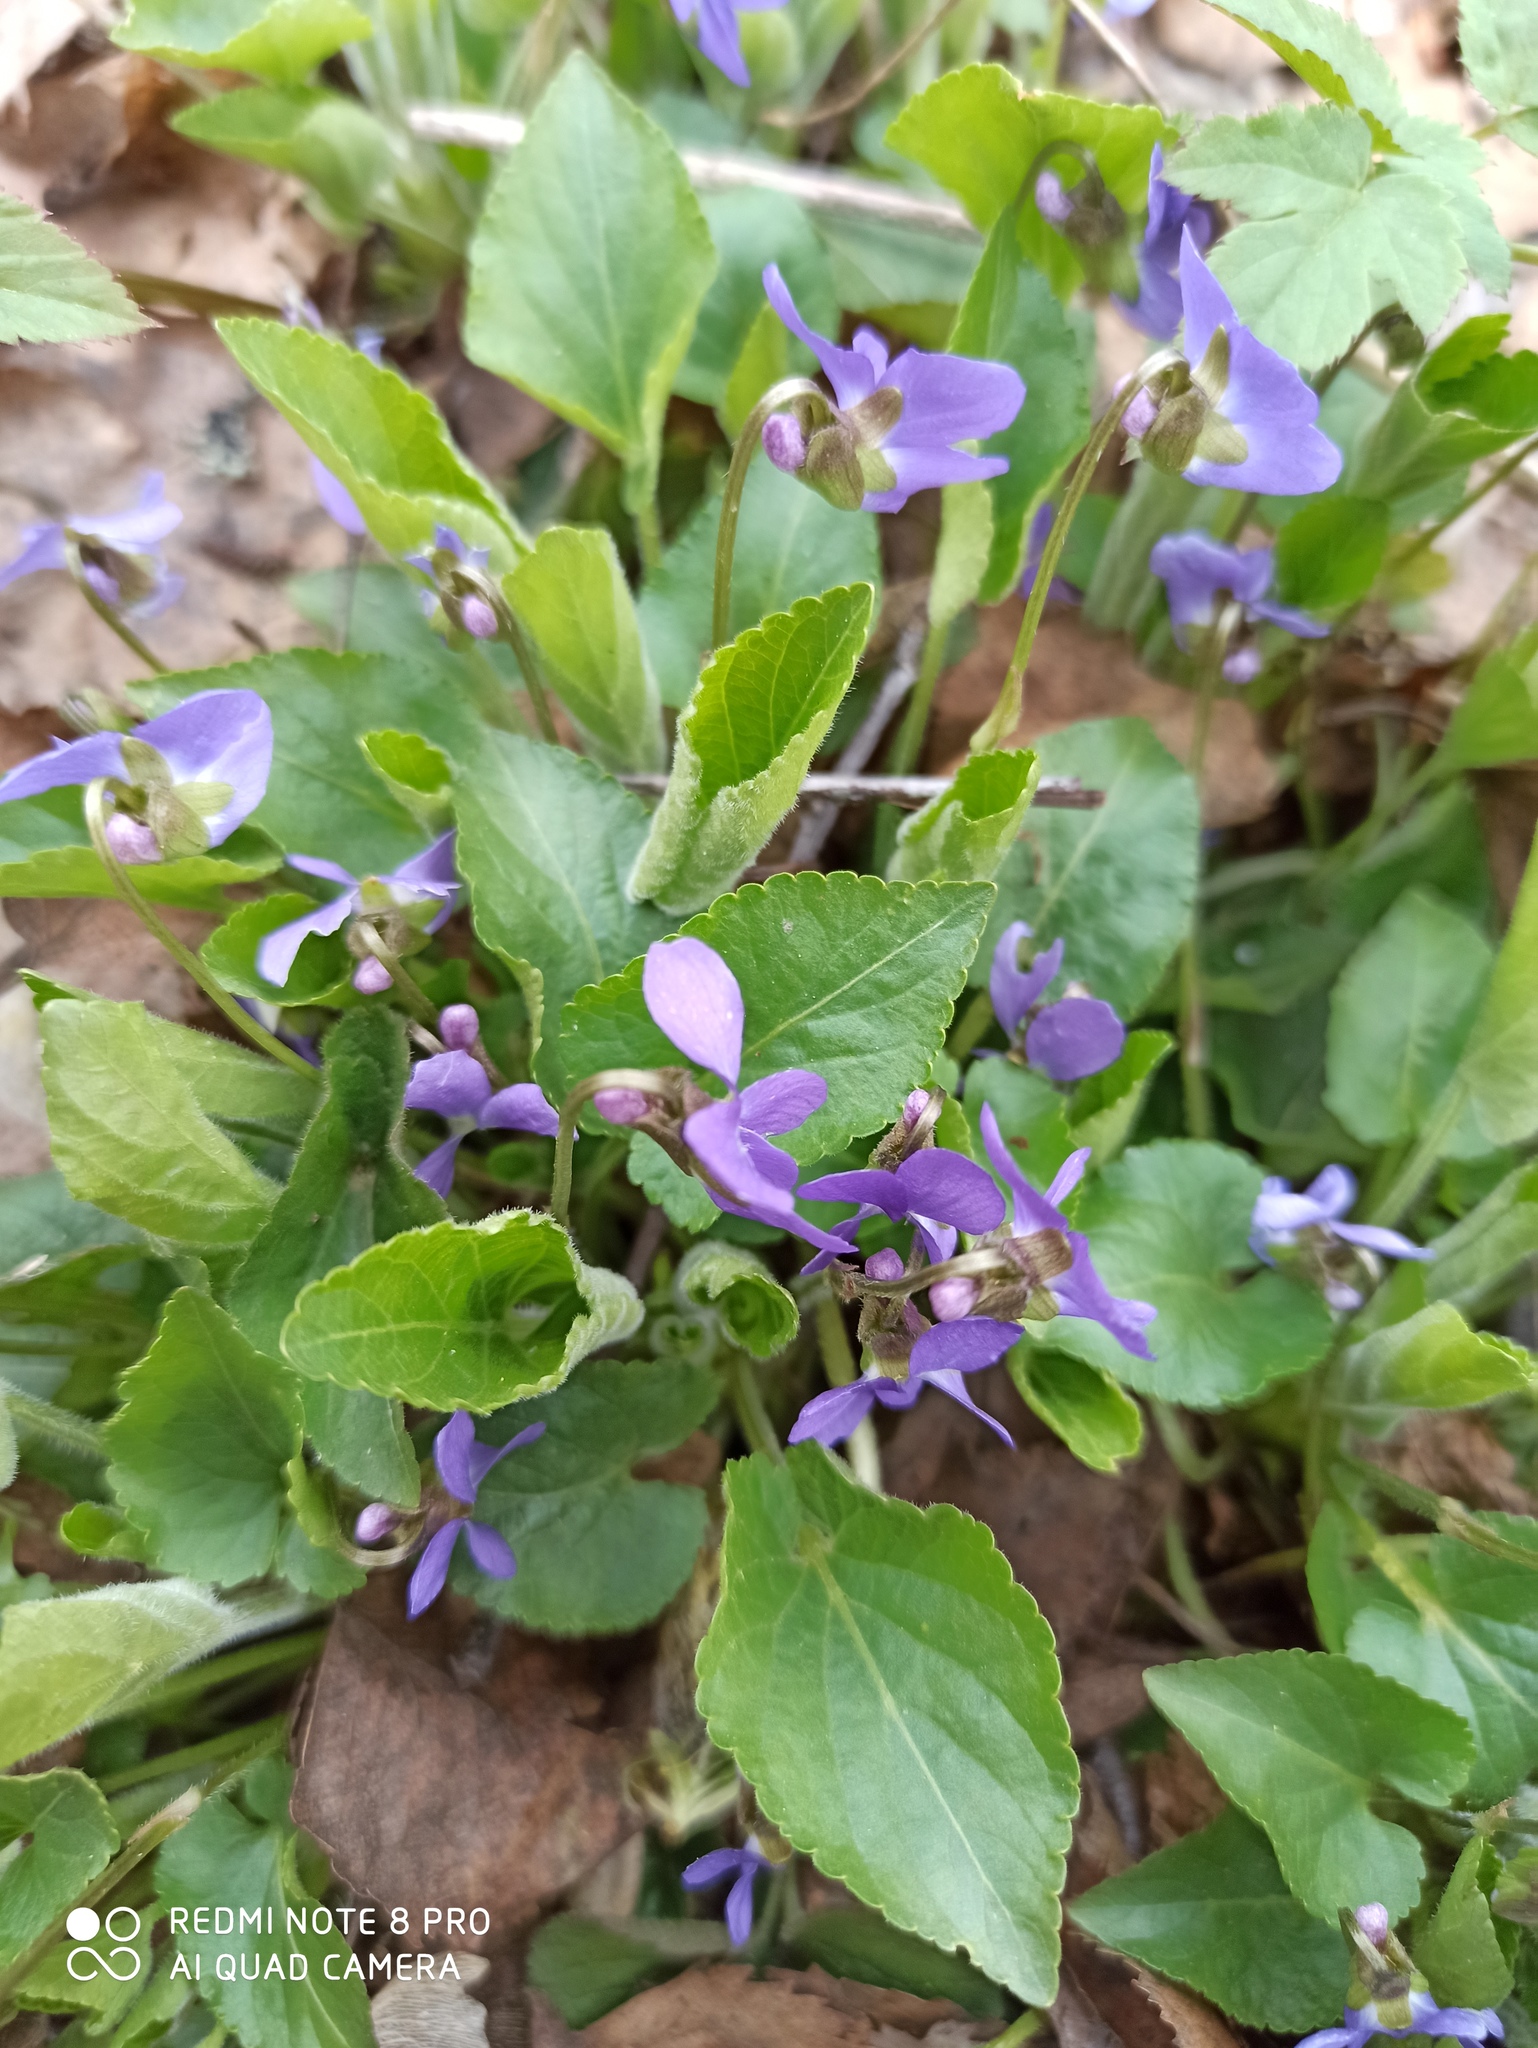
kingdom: Plantae
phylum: Tracheophyta
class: Magnoliopsida
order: Malpighiales
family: Violaceae
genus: Viola
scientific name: Viola hirta
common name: Hairy violet
